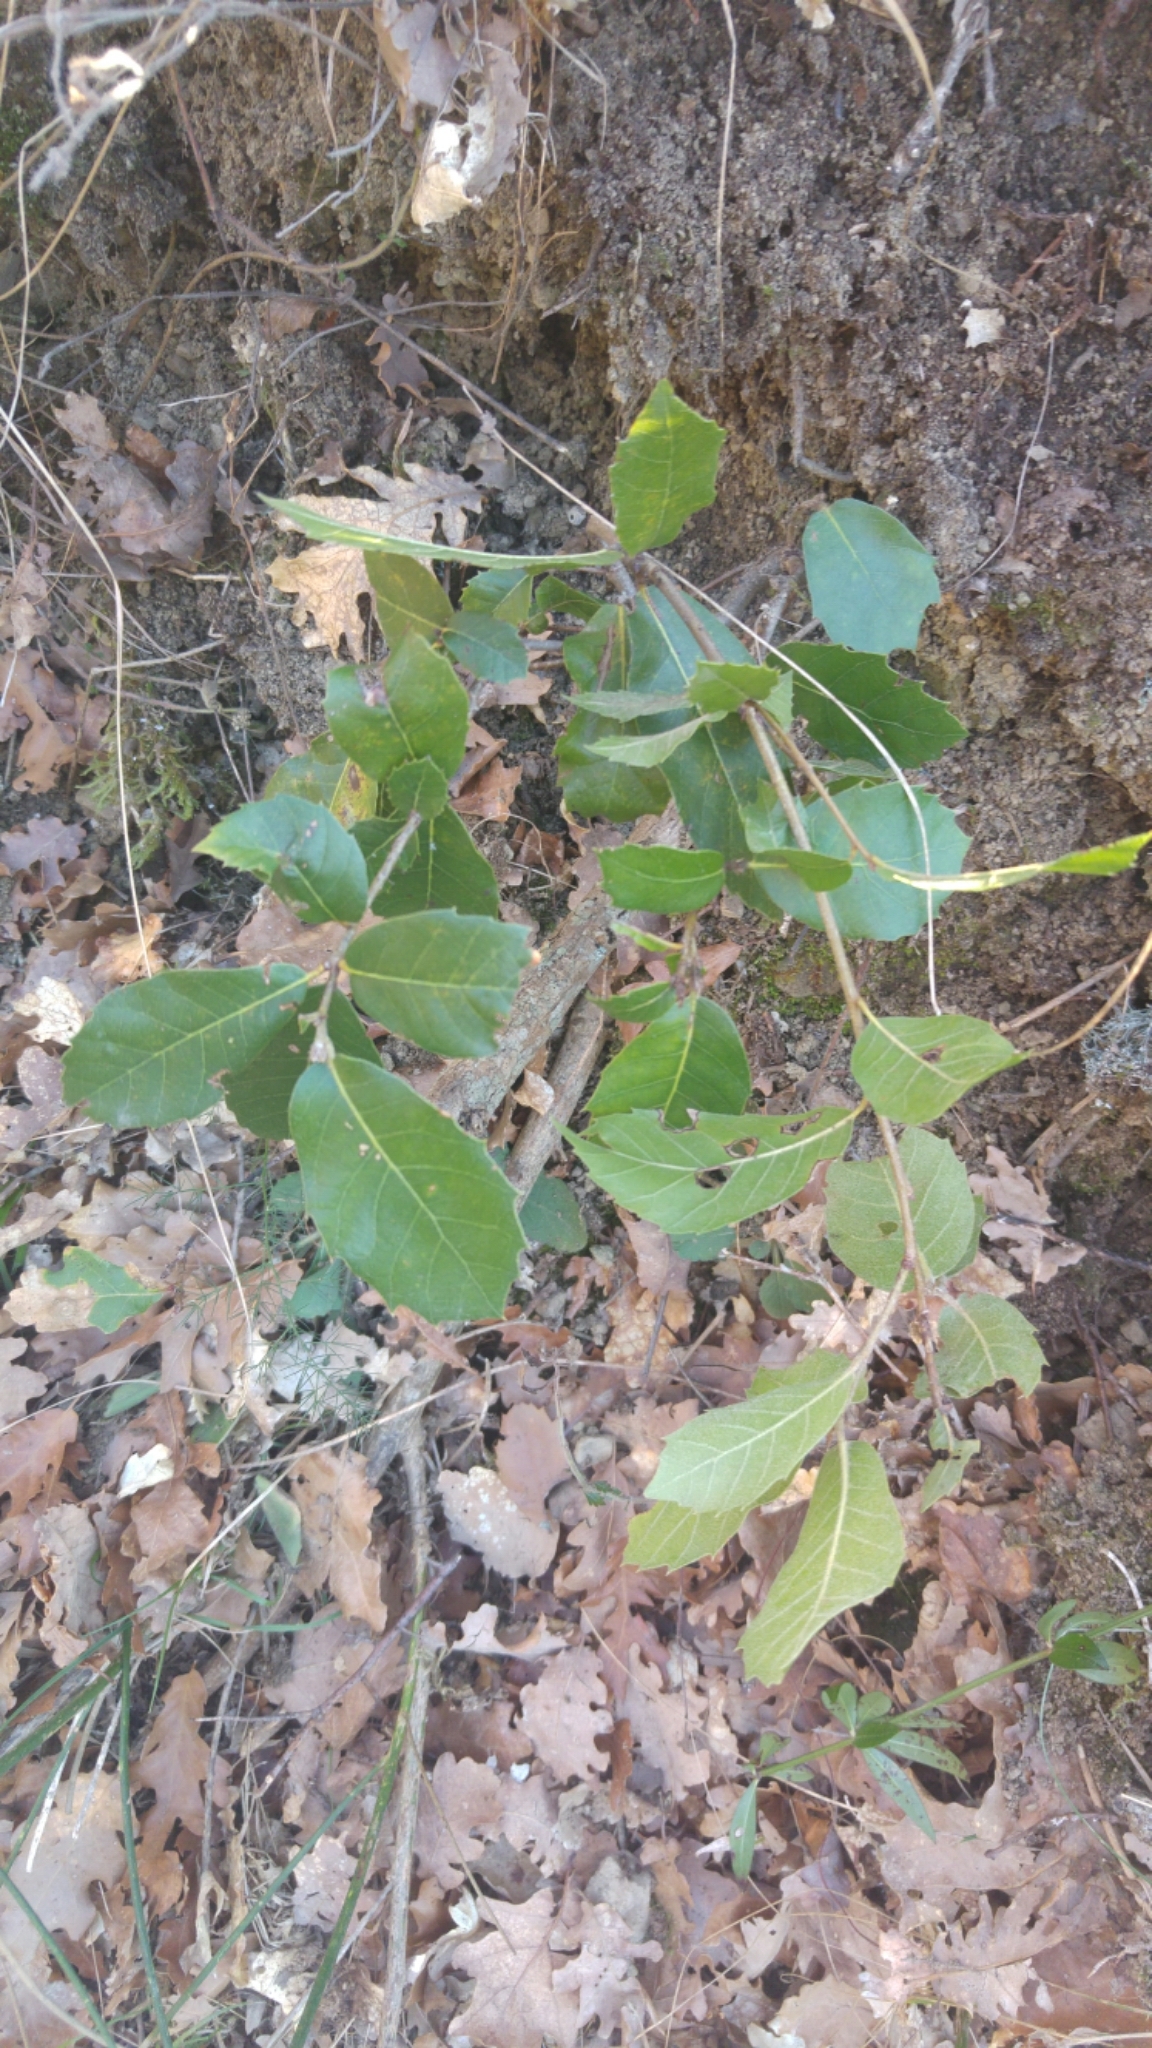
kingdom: Plantae
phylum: Tracheophyta
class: Magnoliopsida
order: Fagales
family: Fagaceae
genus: Quercus
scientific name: Quercus ilex
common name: Evergreen oak
